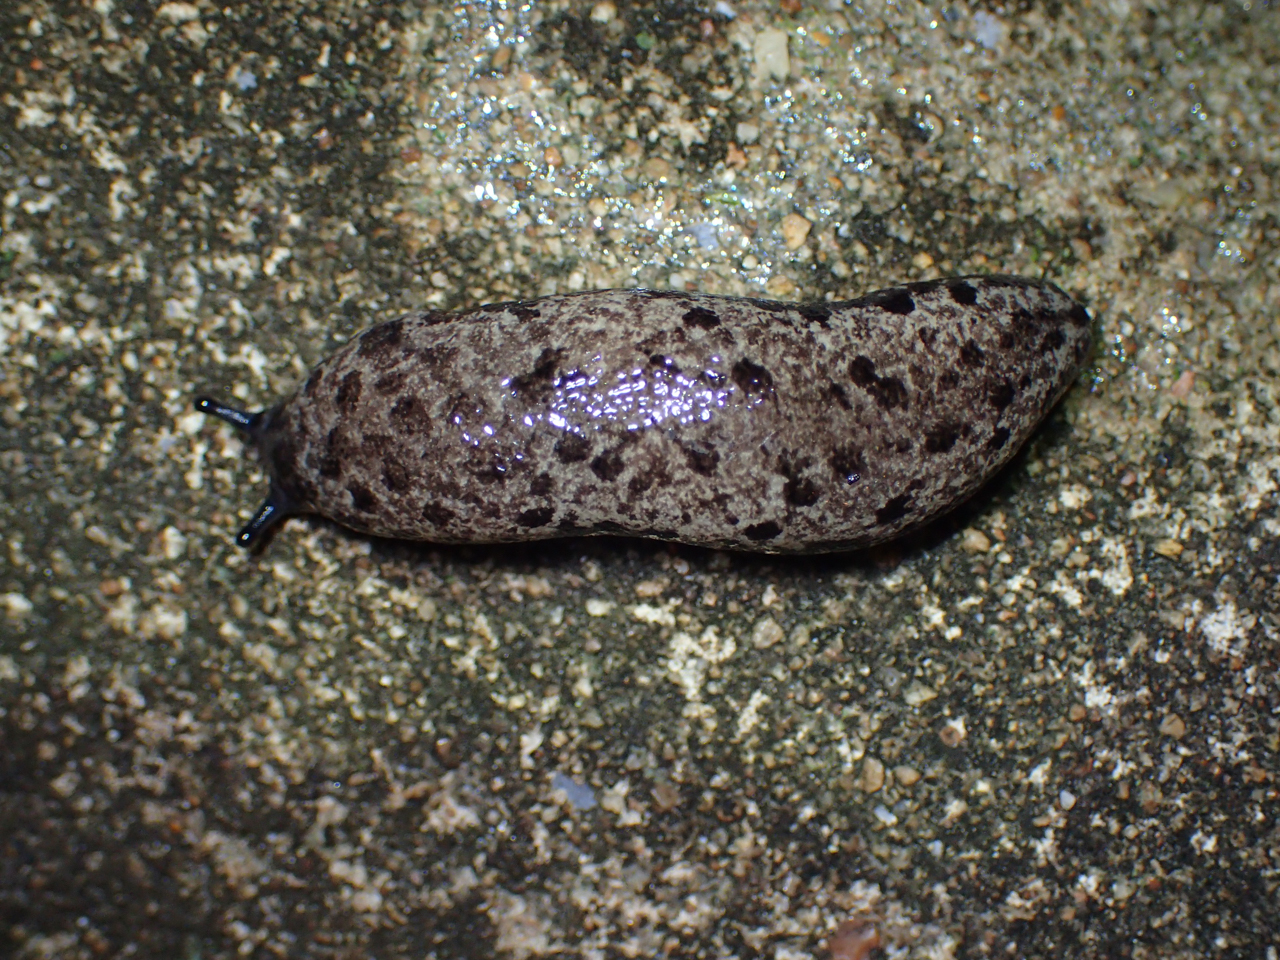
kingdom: Animalia
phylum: Mollusca
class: Gastropoda
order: Stylommatophora
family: Philomycidae
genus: Megapallifera
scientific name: Megapallifera mutabilis
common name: Changeable mantleslug
